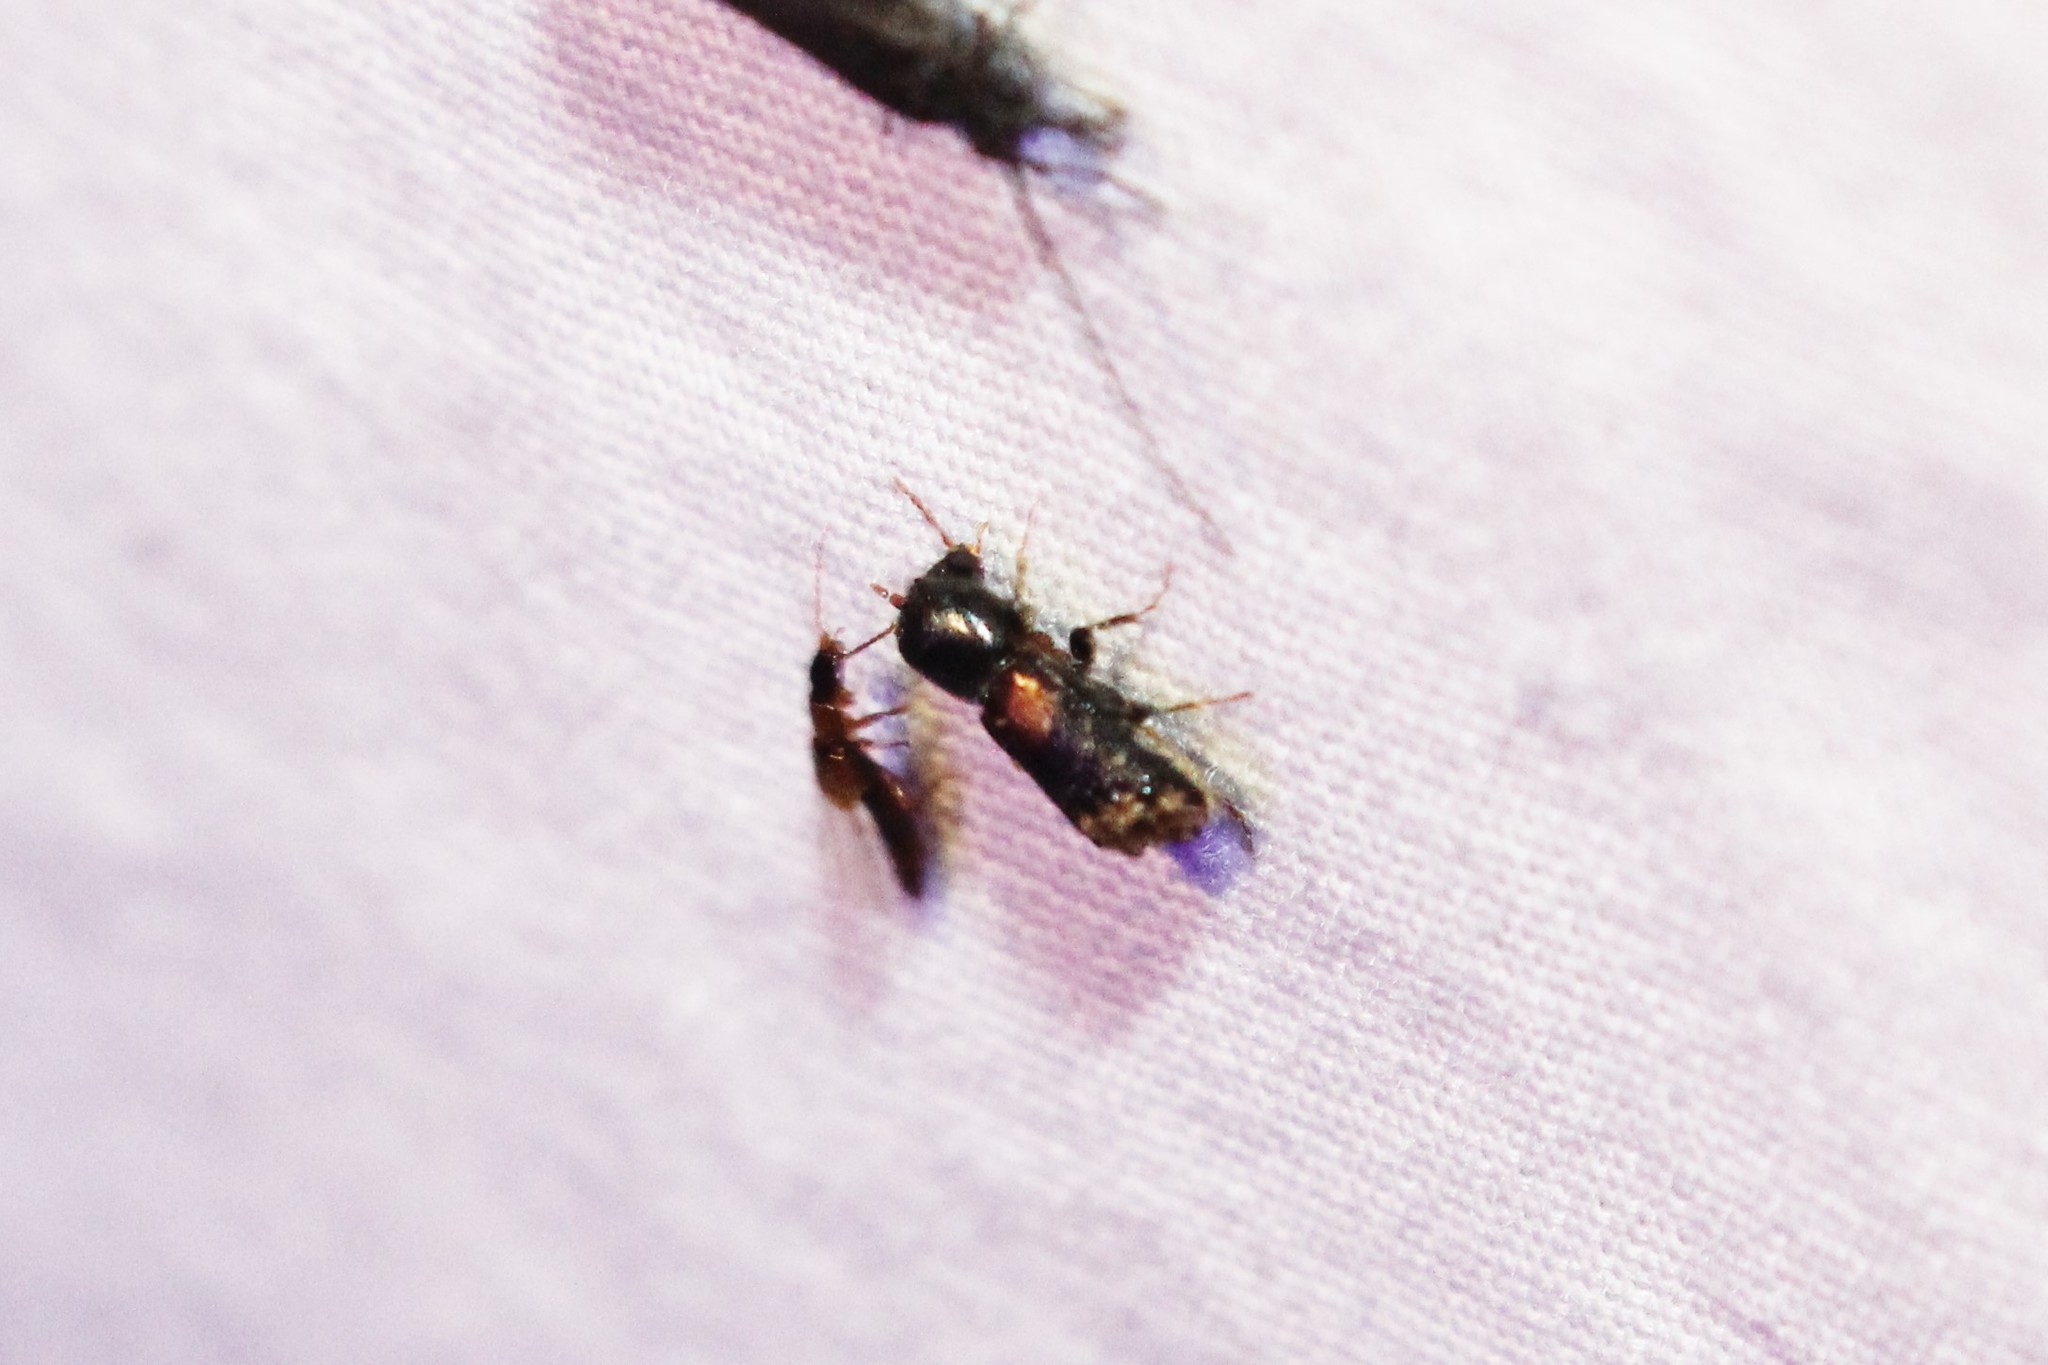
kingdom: Animalia
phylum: Arthropoda
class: Insecta
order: Coleoptera
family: Bostrichidae
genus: Xylobiops
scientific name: Xylobiops basilaris
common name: Red-shouldered bostrichid
